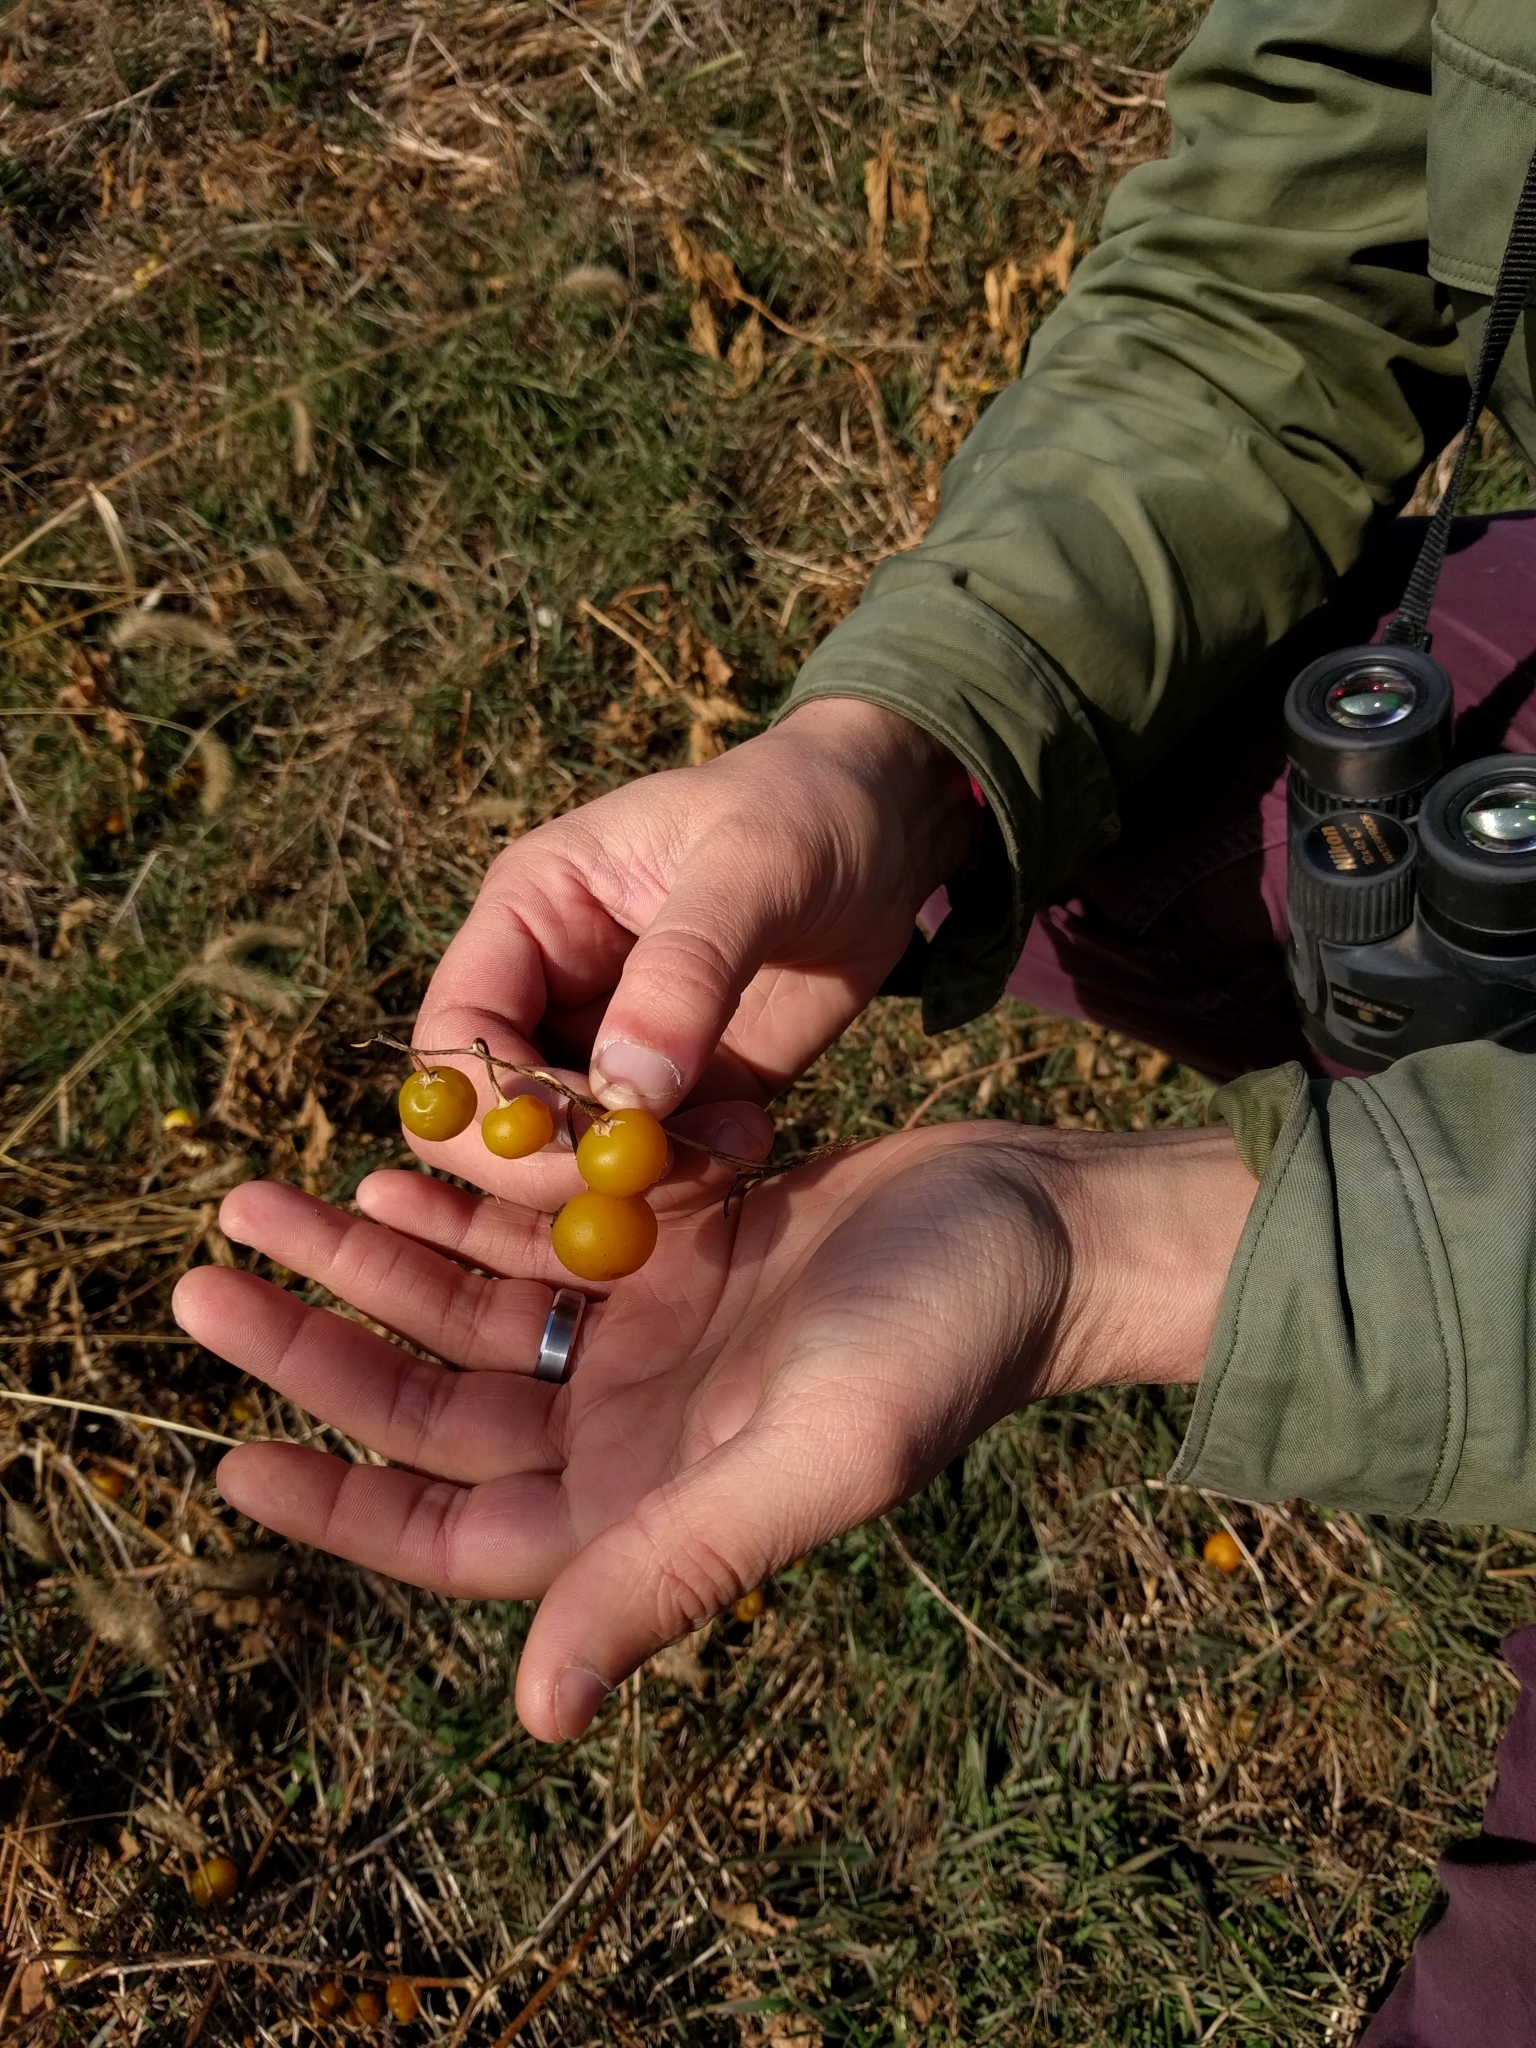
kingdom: Plantae
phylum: Tracheophyta
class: Magnoliopsida
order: Solanales
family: Solanaceae
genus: Solanum
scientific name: Solanum carolinense
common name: Horse-nettle
